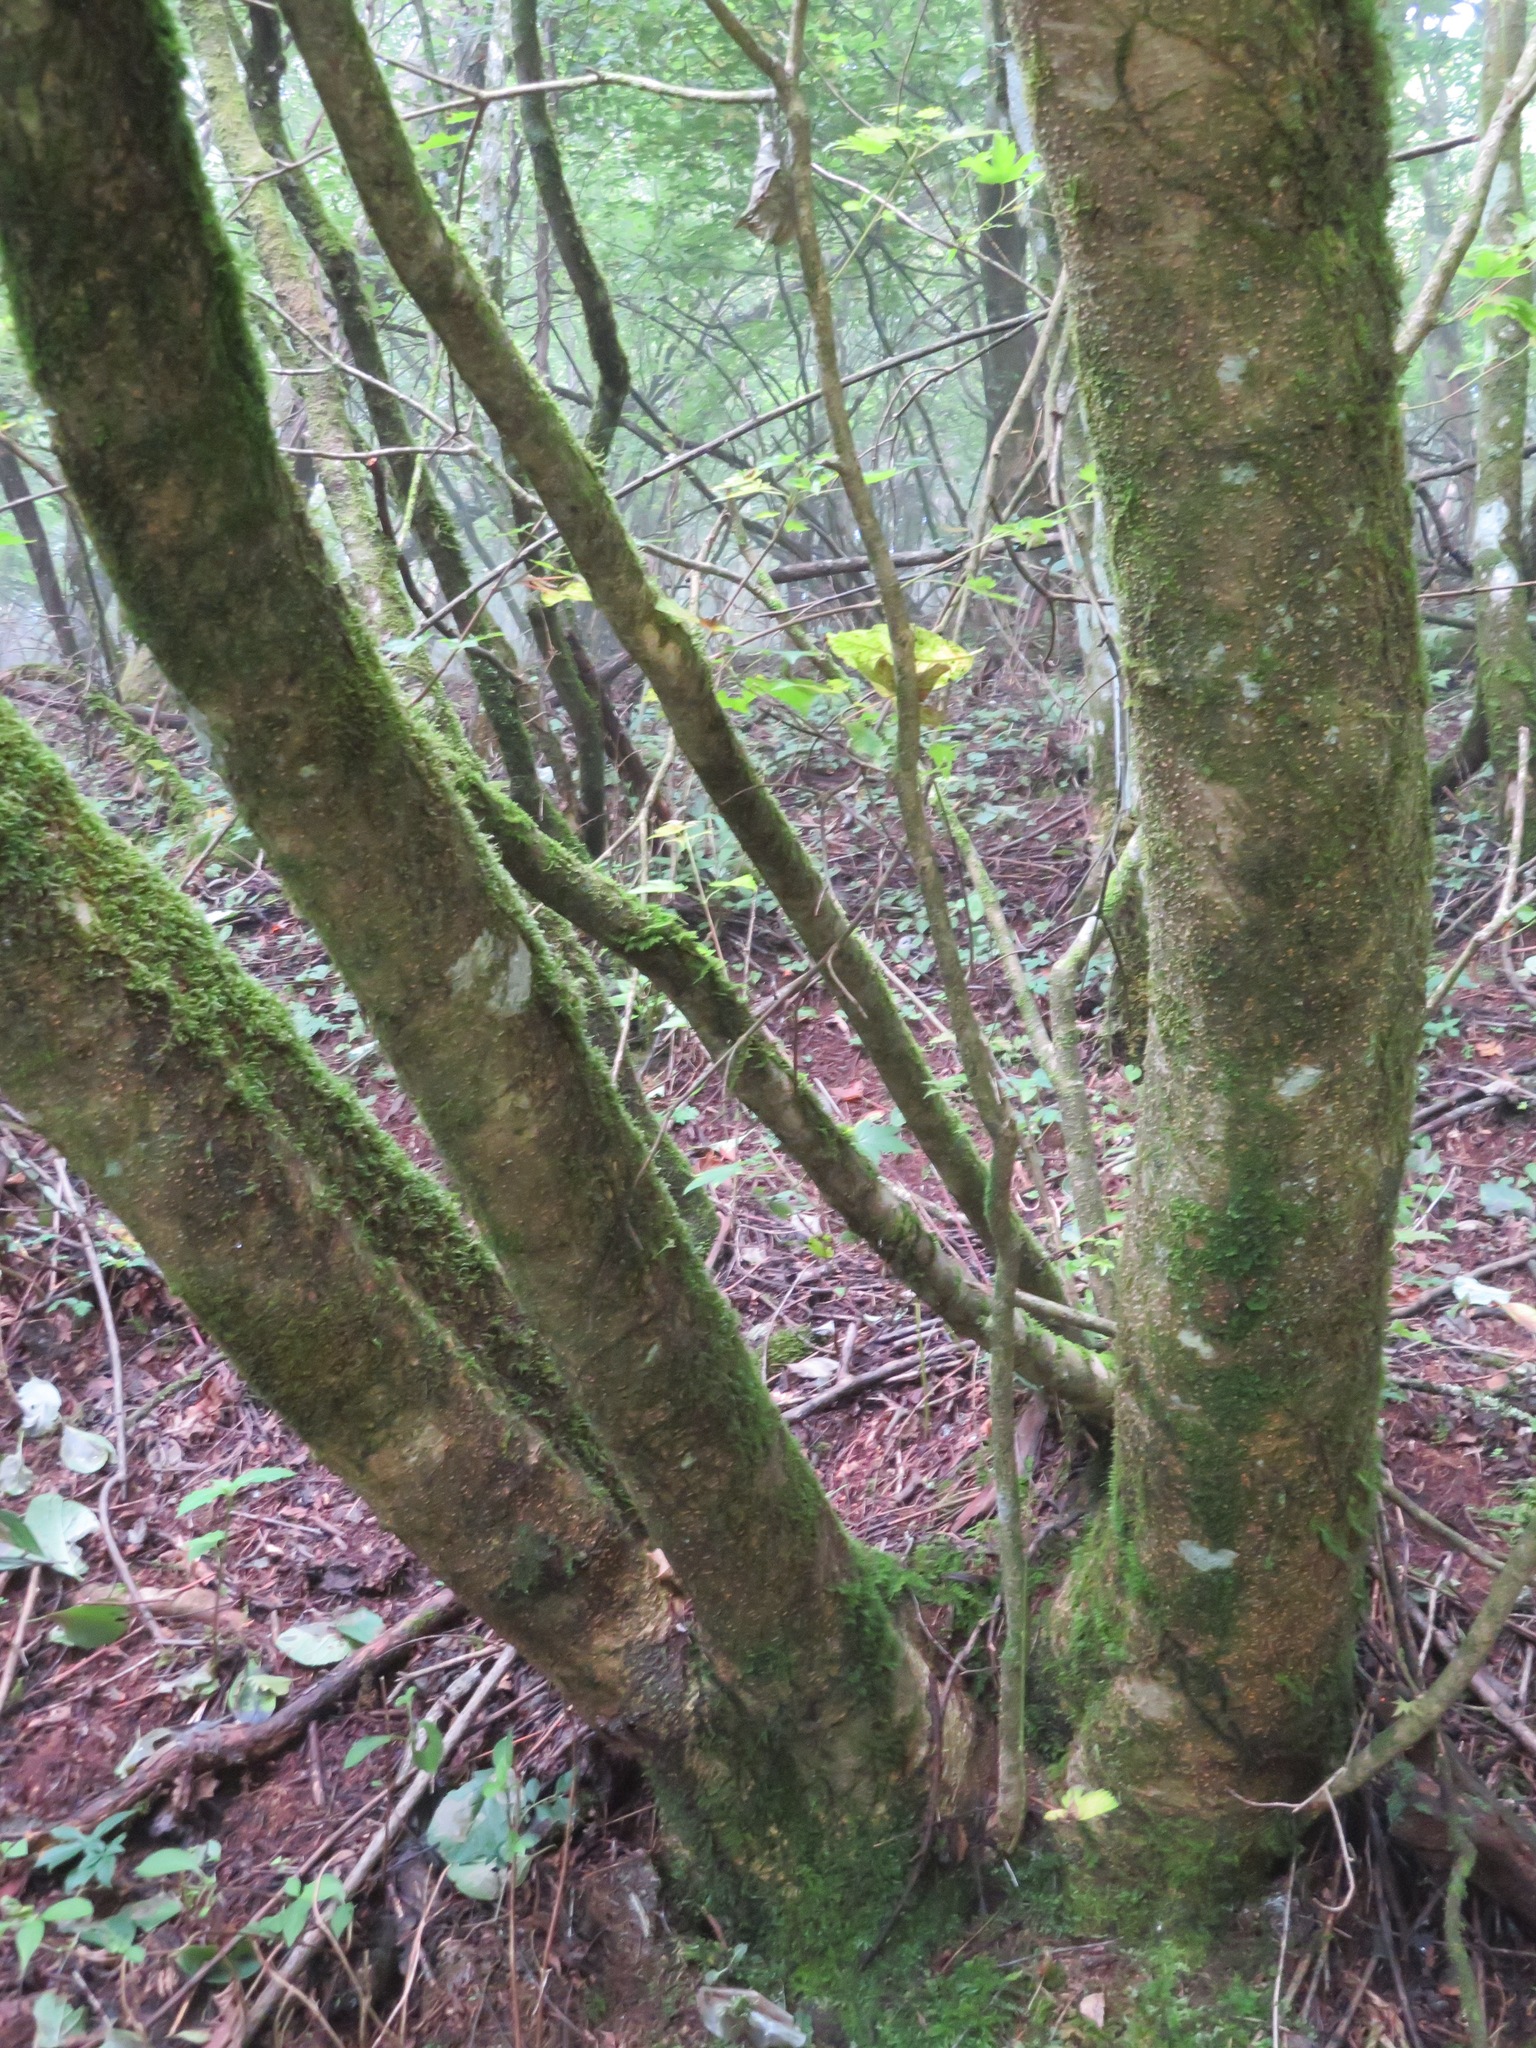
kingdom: Plantae
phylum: Tracheophyta
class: Magnoliopsida
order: Sapindales
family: Sapindaceae
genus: Acer
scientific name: Acer argutum
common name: Pointed-leaf maple
